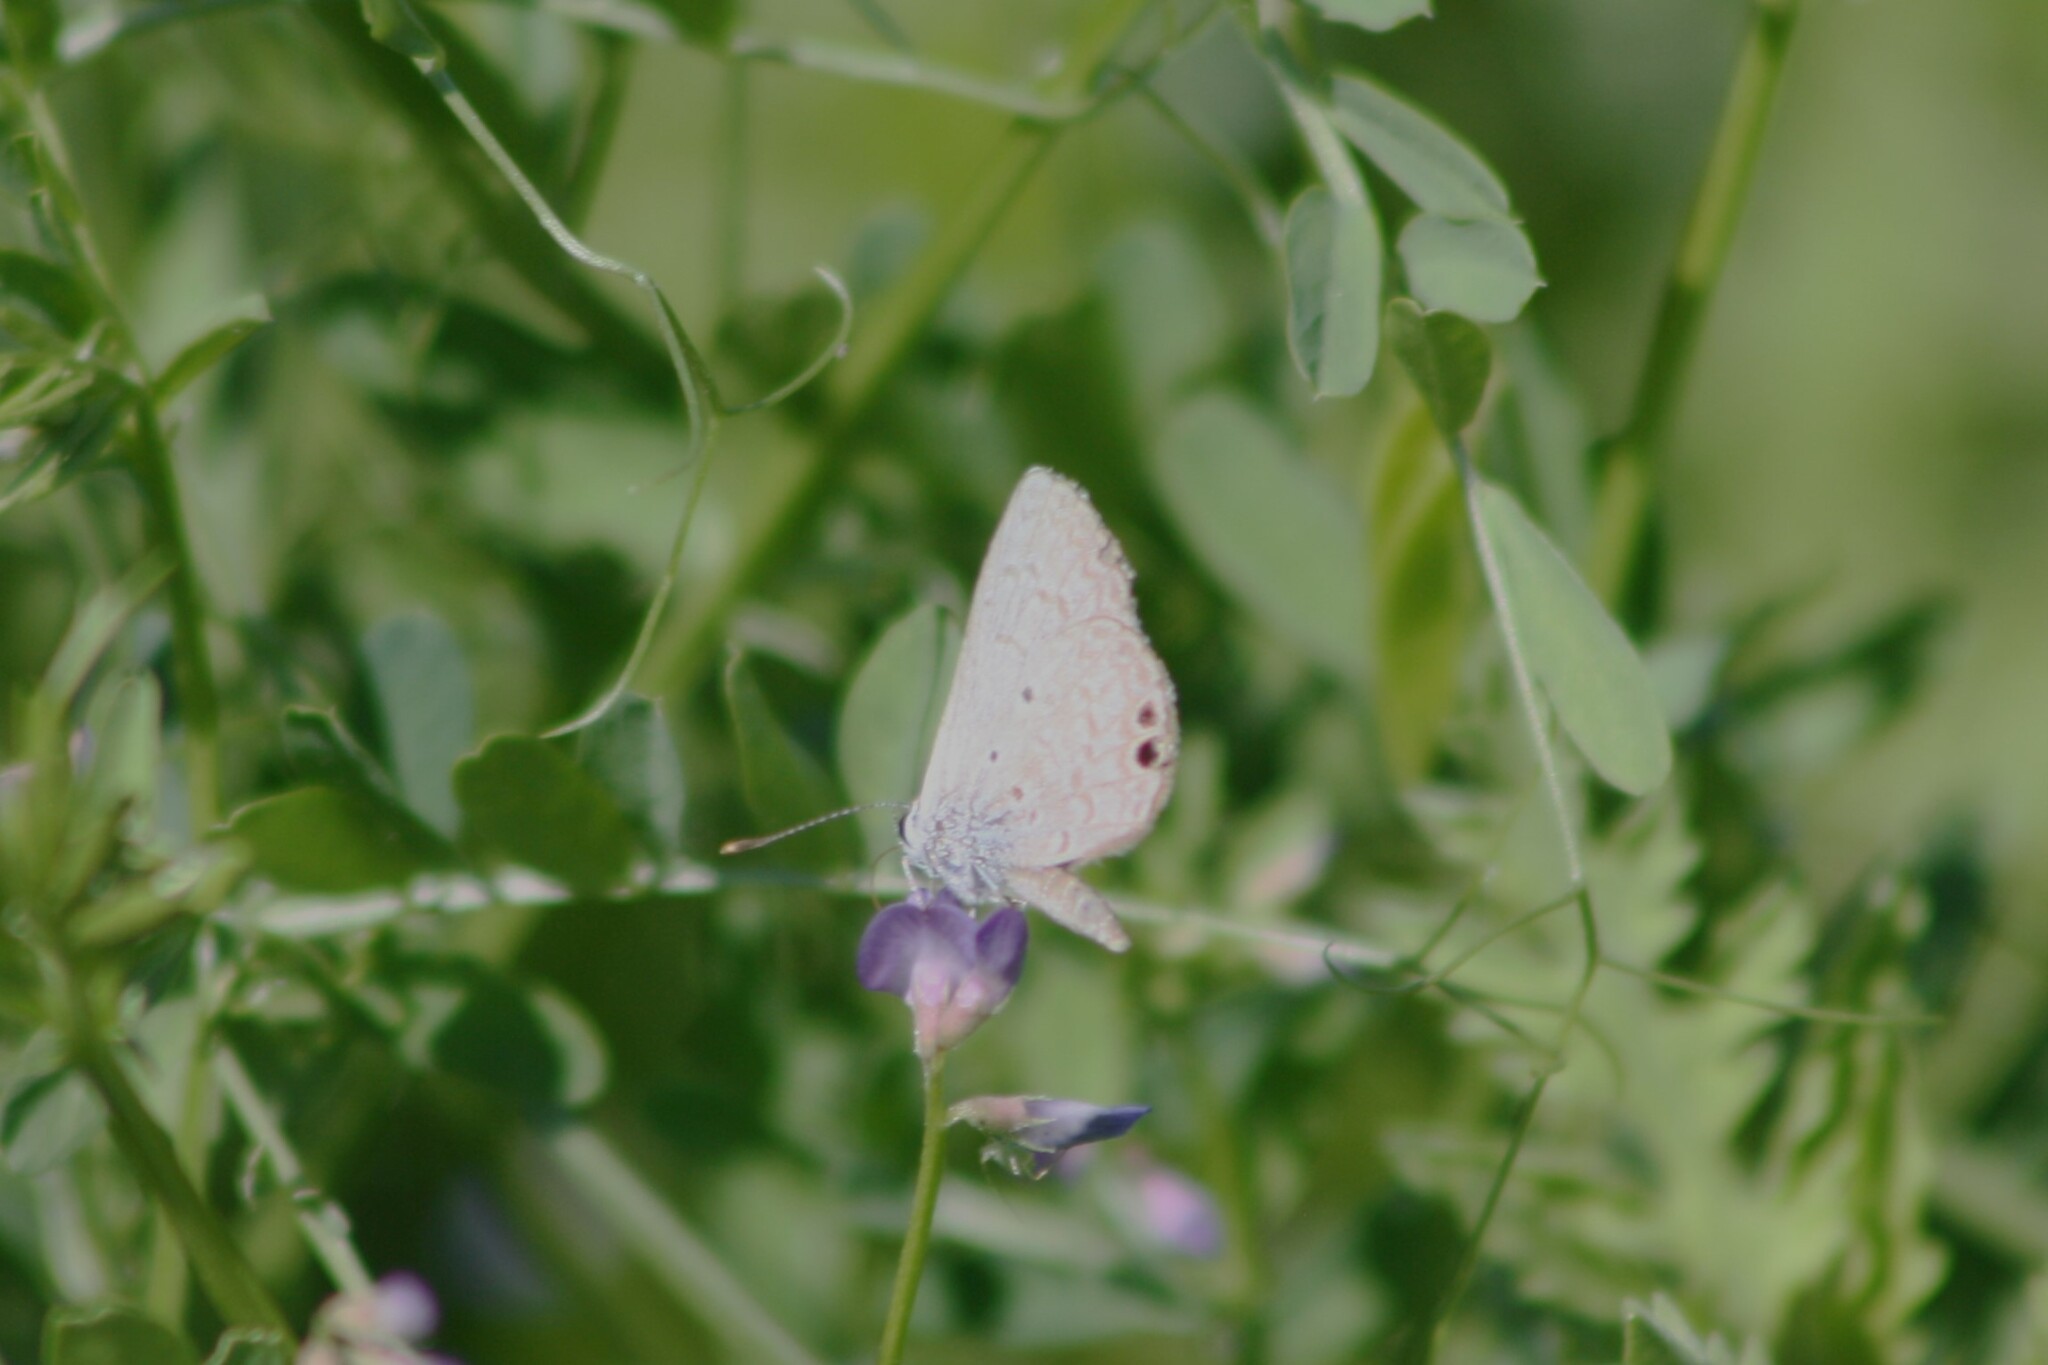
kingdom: Animalia
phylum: Arthropoda
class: Insecta
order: Lepidoptera
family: Lycaenidae
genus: Hemiargus
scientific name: Hemiargus ceraunus
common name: Ceraunus blue
